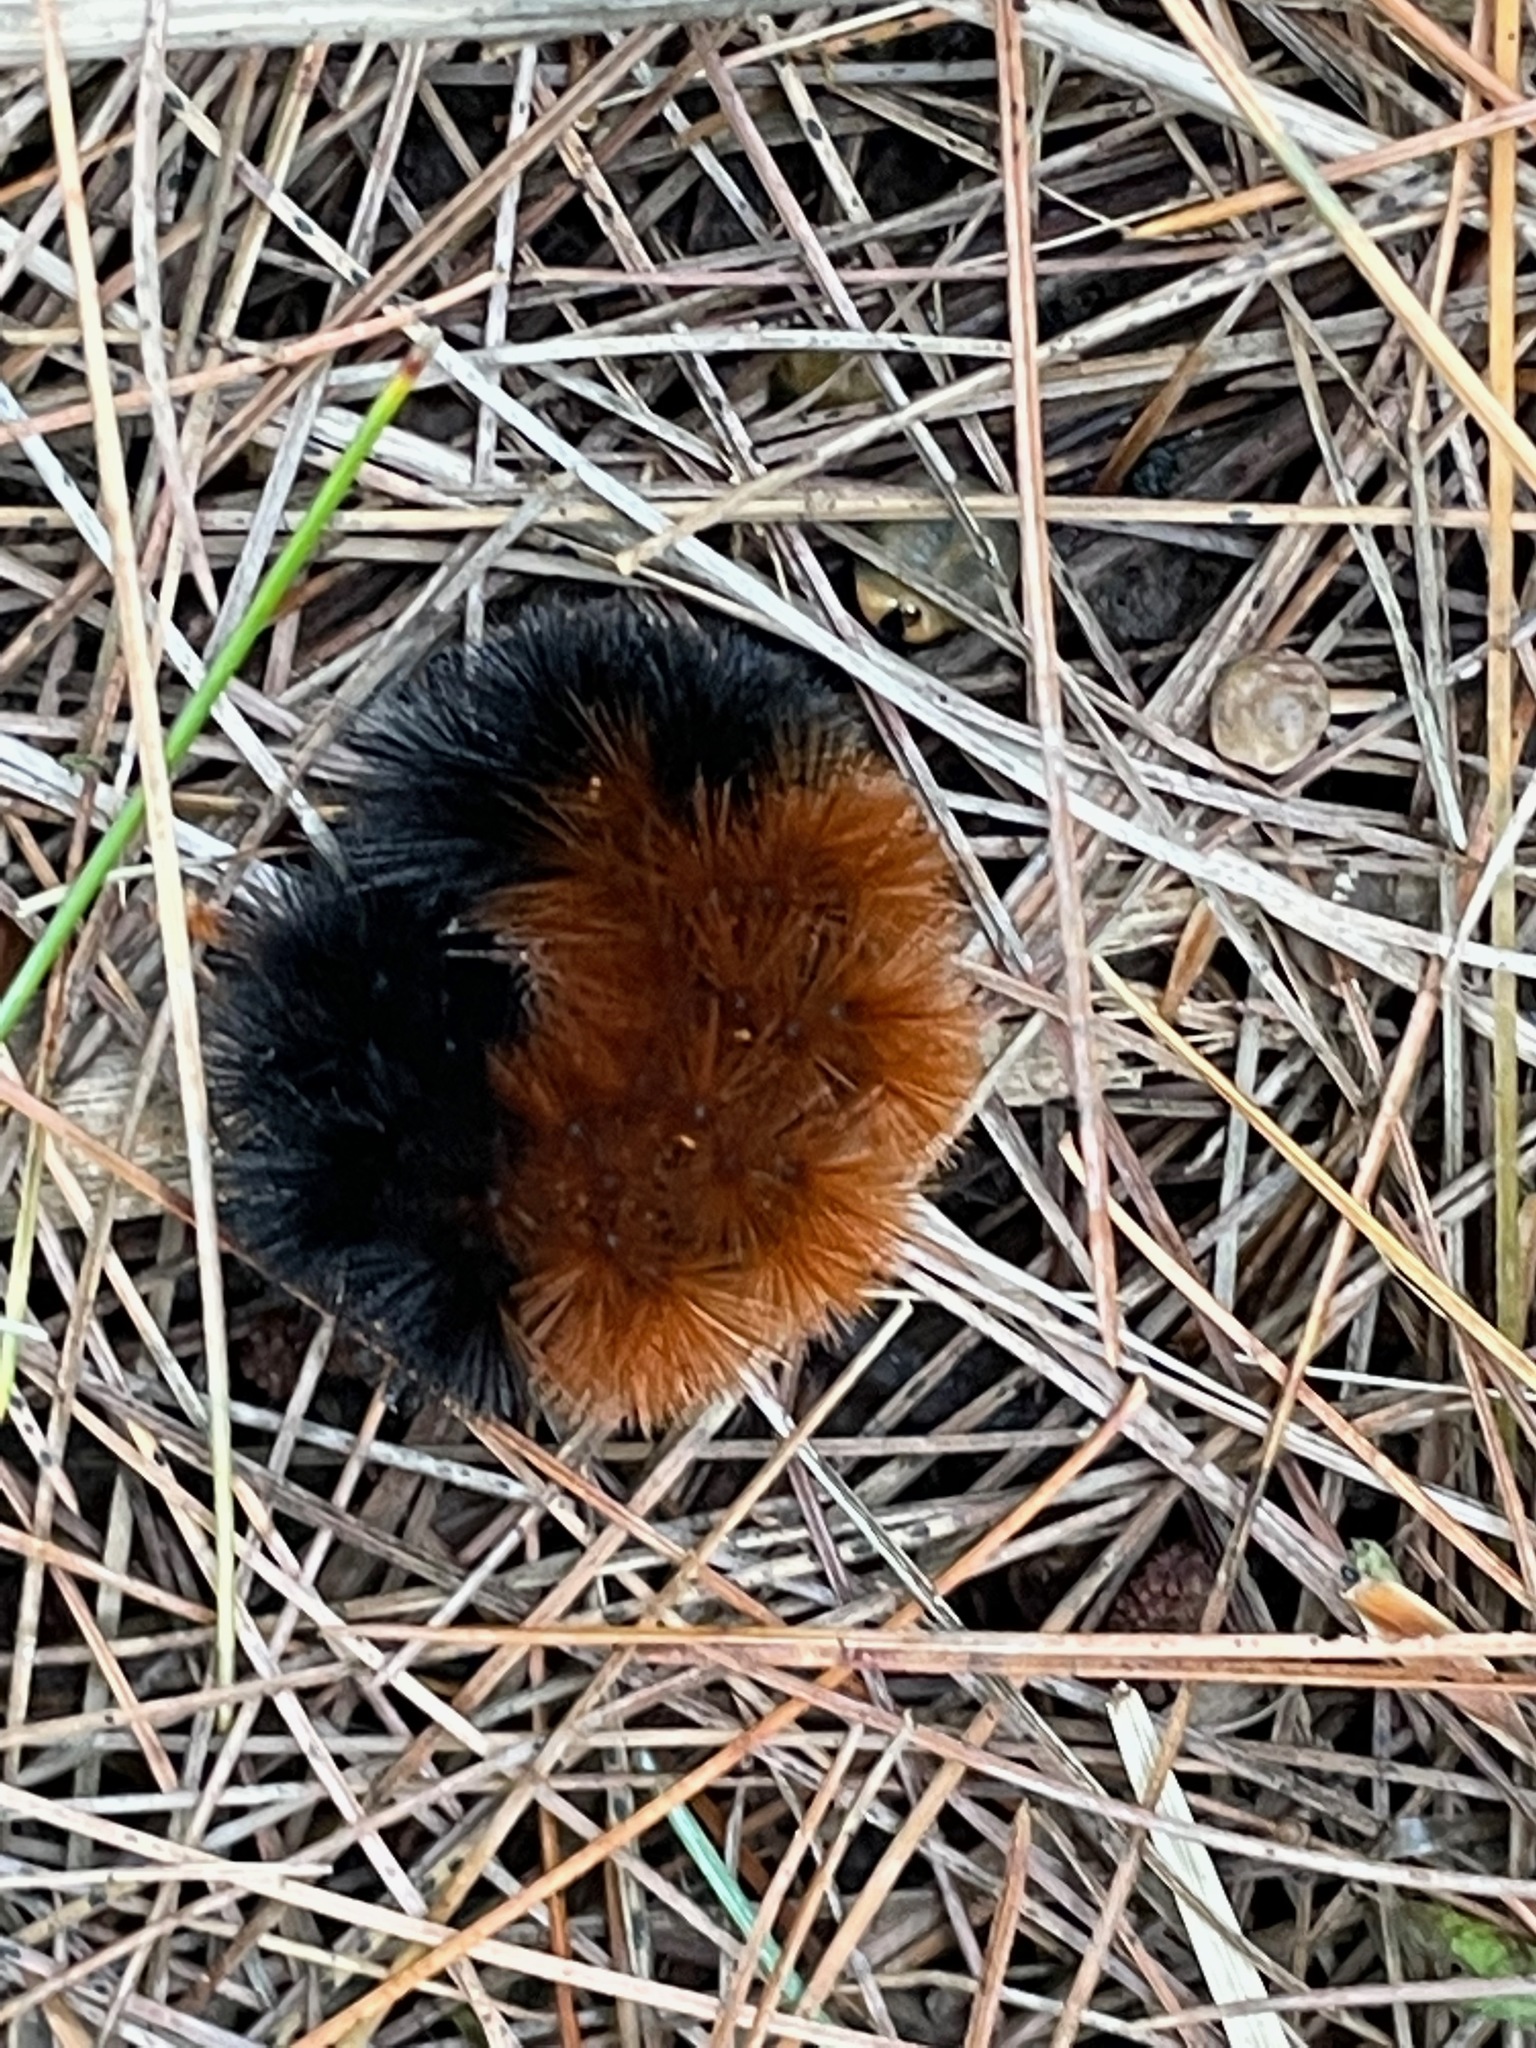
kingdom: Animalia
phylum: Arthropoda
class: Insecta
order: Lepidoptera
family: Erebidae
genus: Pyrrharctia
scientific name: Pyrrharctia isabella
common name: Isabella tiger moth
